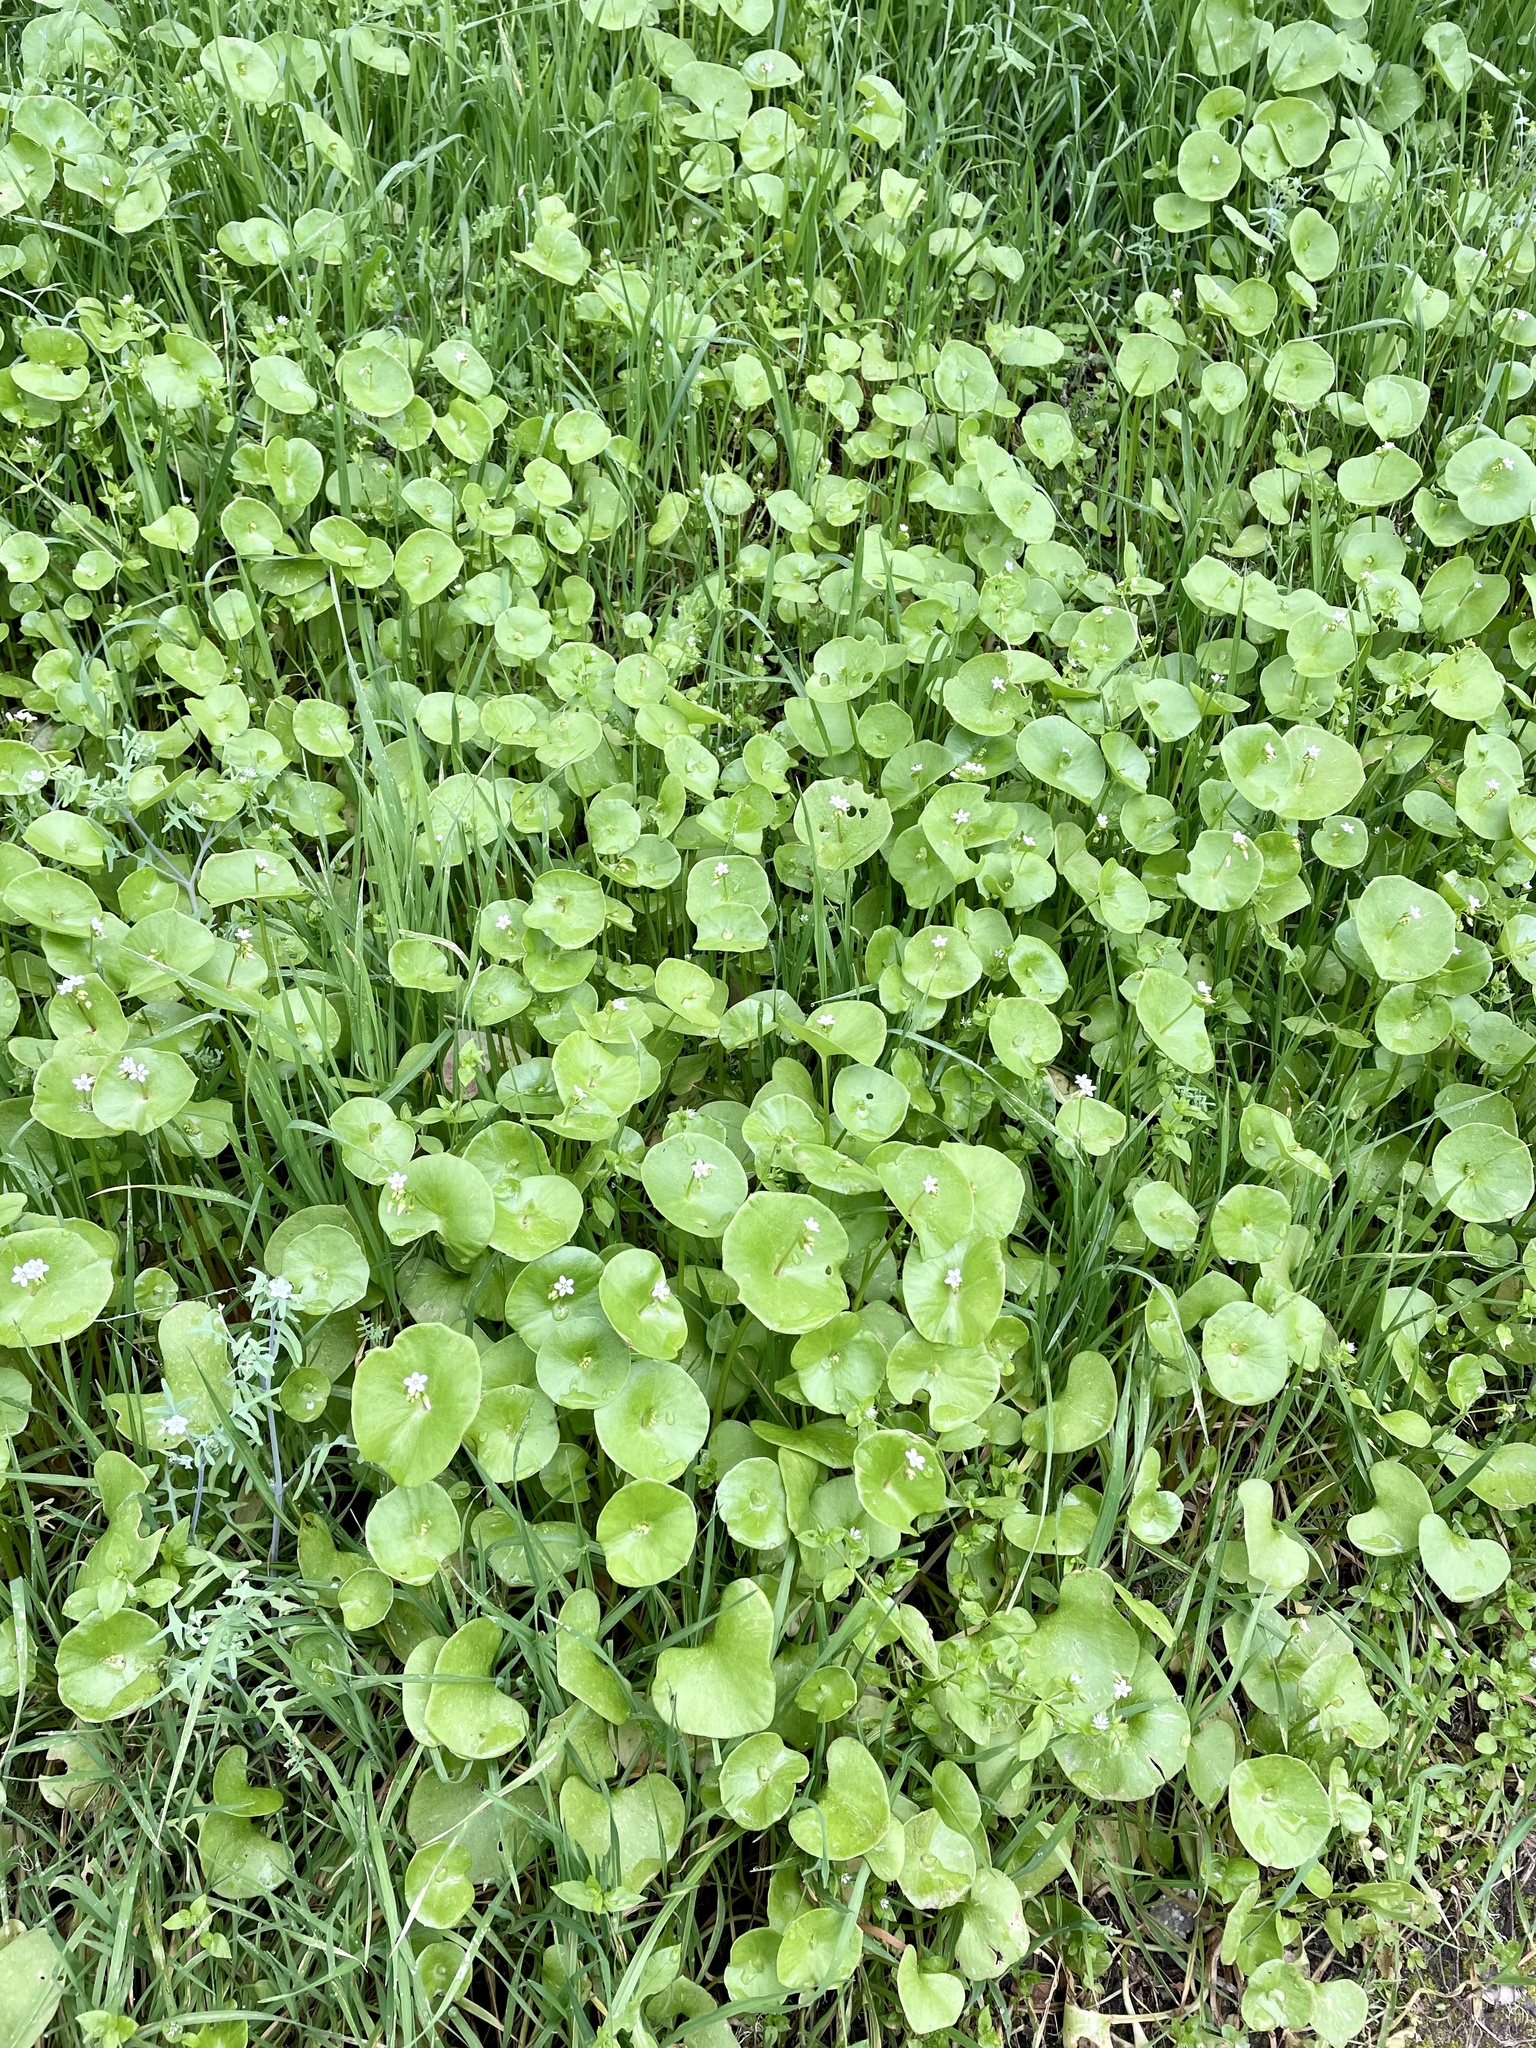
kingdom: Plantae
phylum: Tracheophyta
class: Magnoliopsida
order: Caryophyllales
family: Montiaceae
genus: Claytonia
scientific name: Claytonia perfoliata
